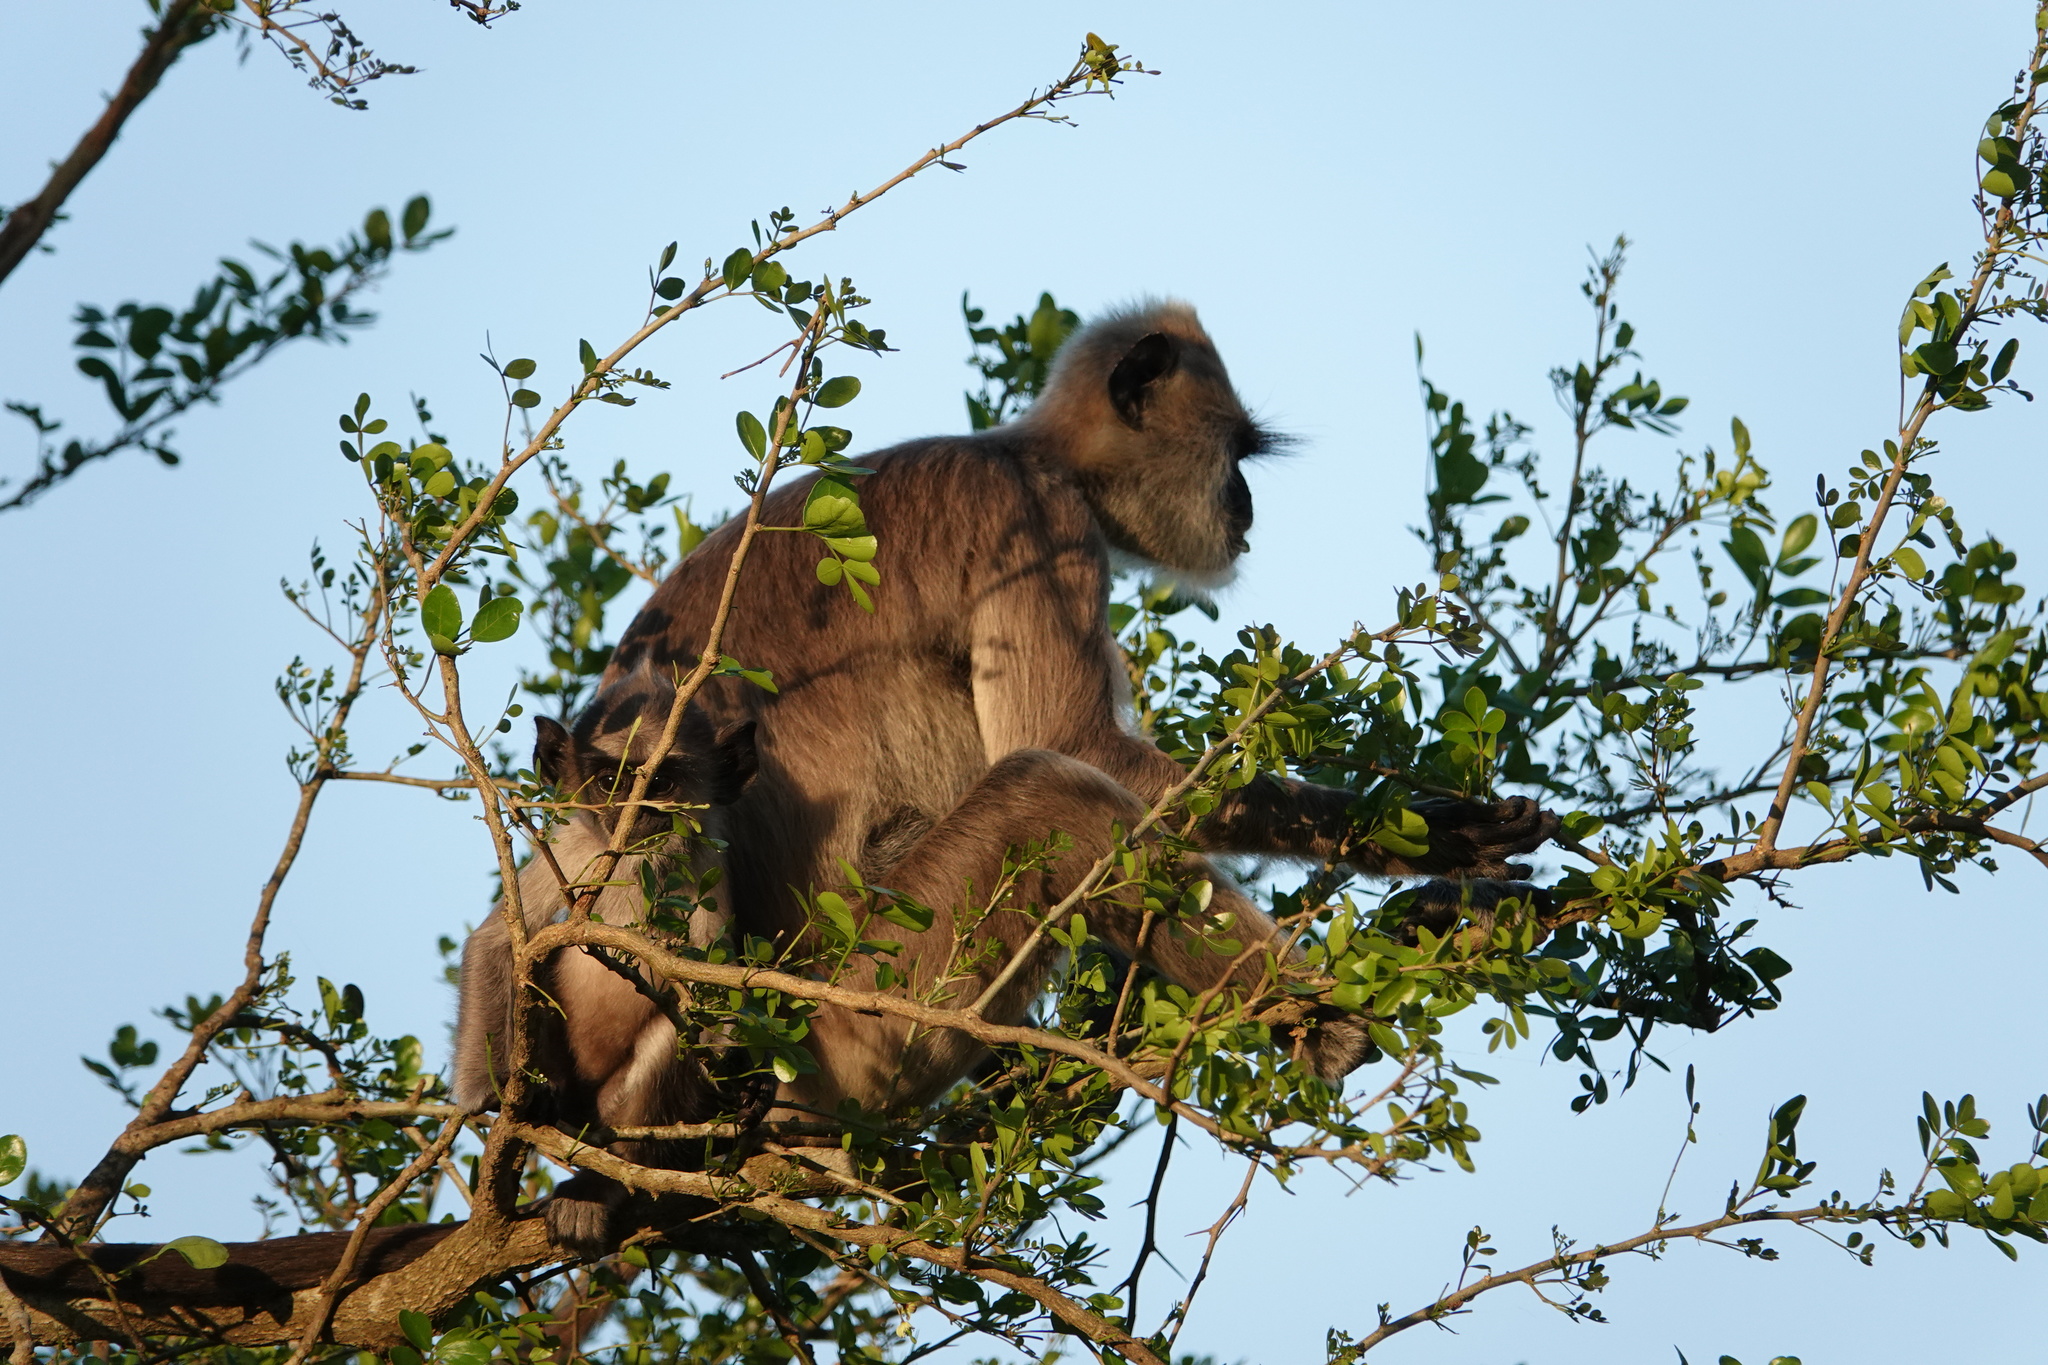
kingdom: Animalia
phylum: Chordata
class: Mammalia
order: Primates
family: Cercopithecidae
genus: Semnopithecus
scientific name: Semnopithecus priam
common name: Tufted gray langur
